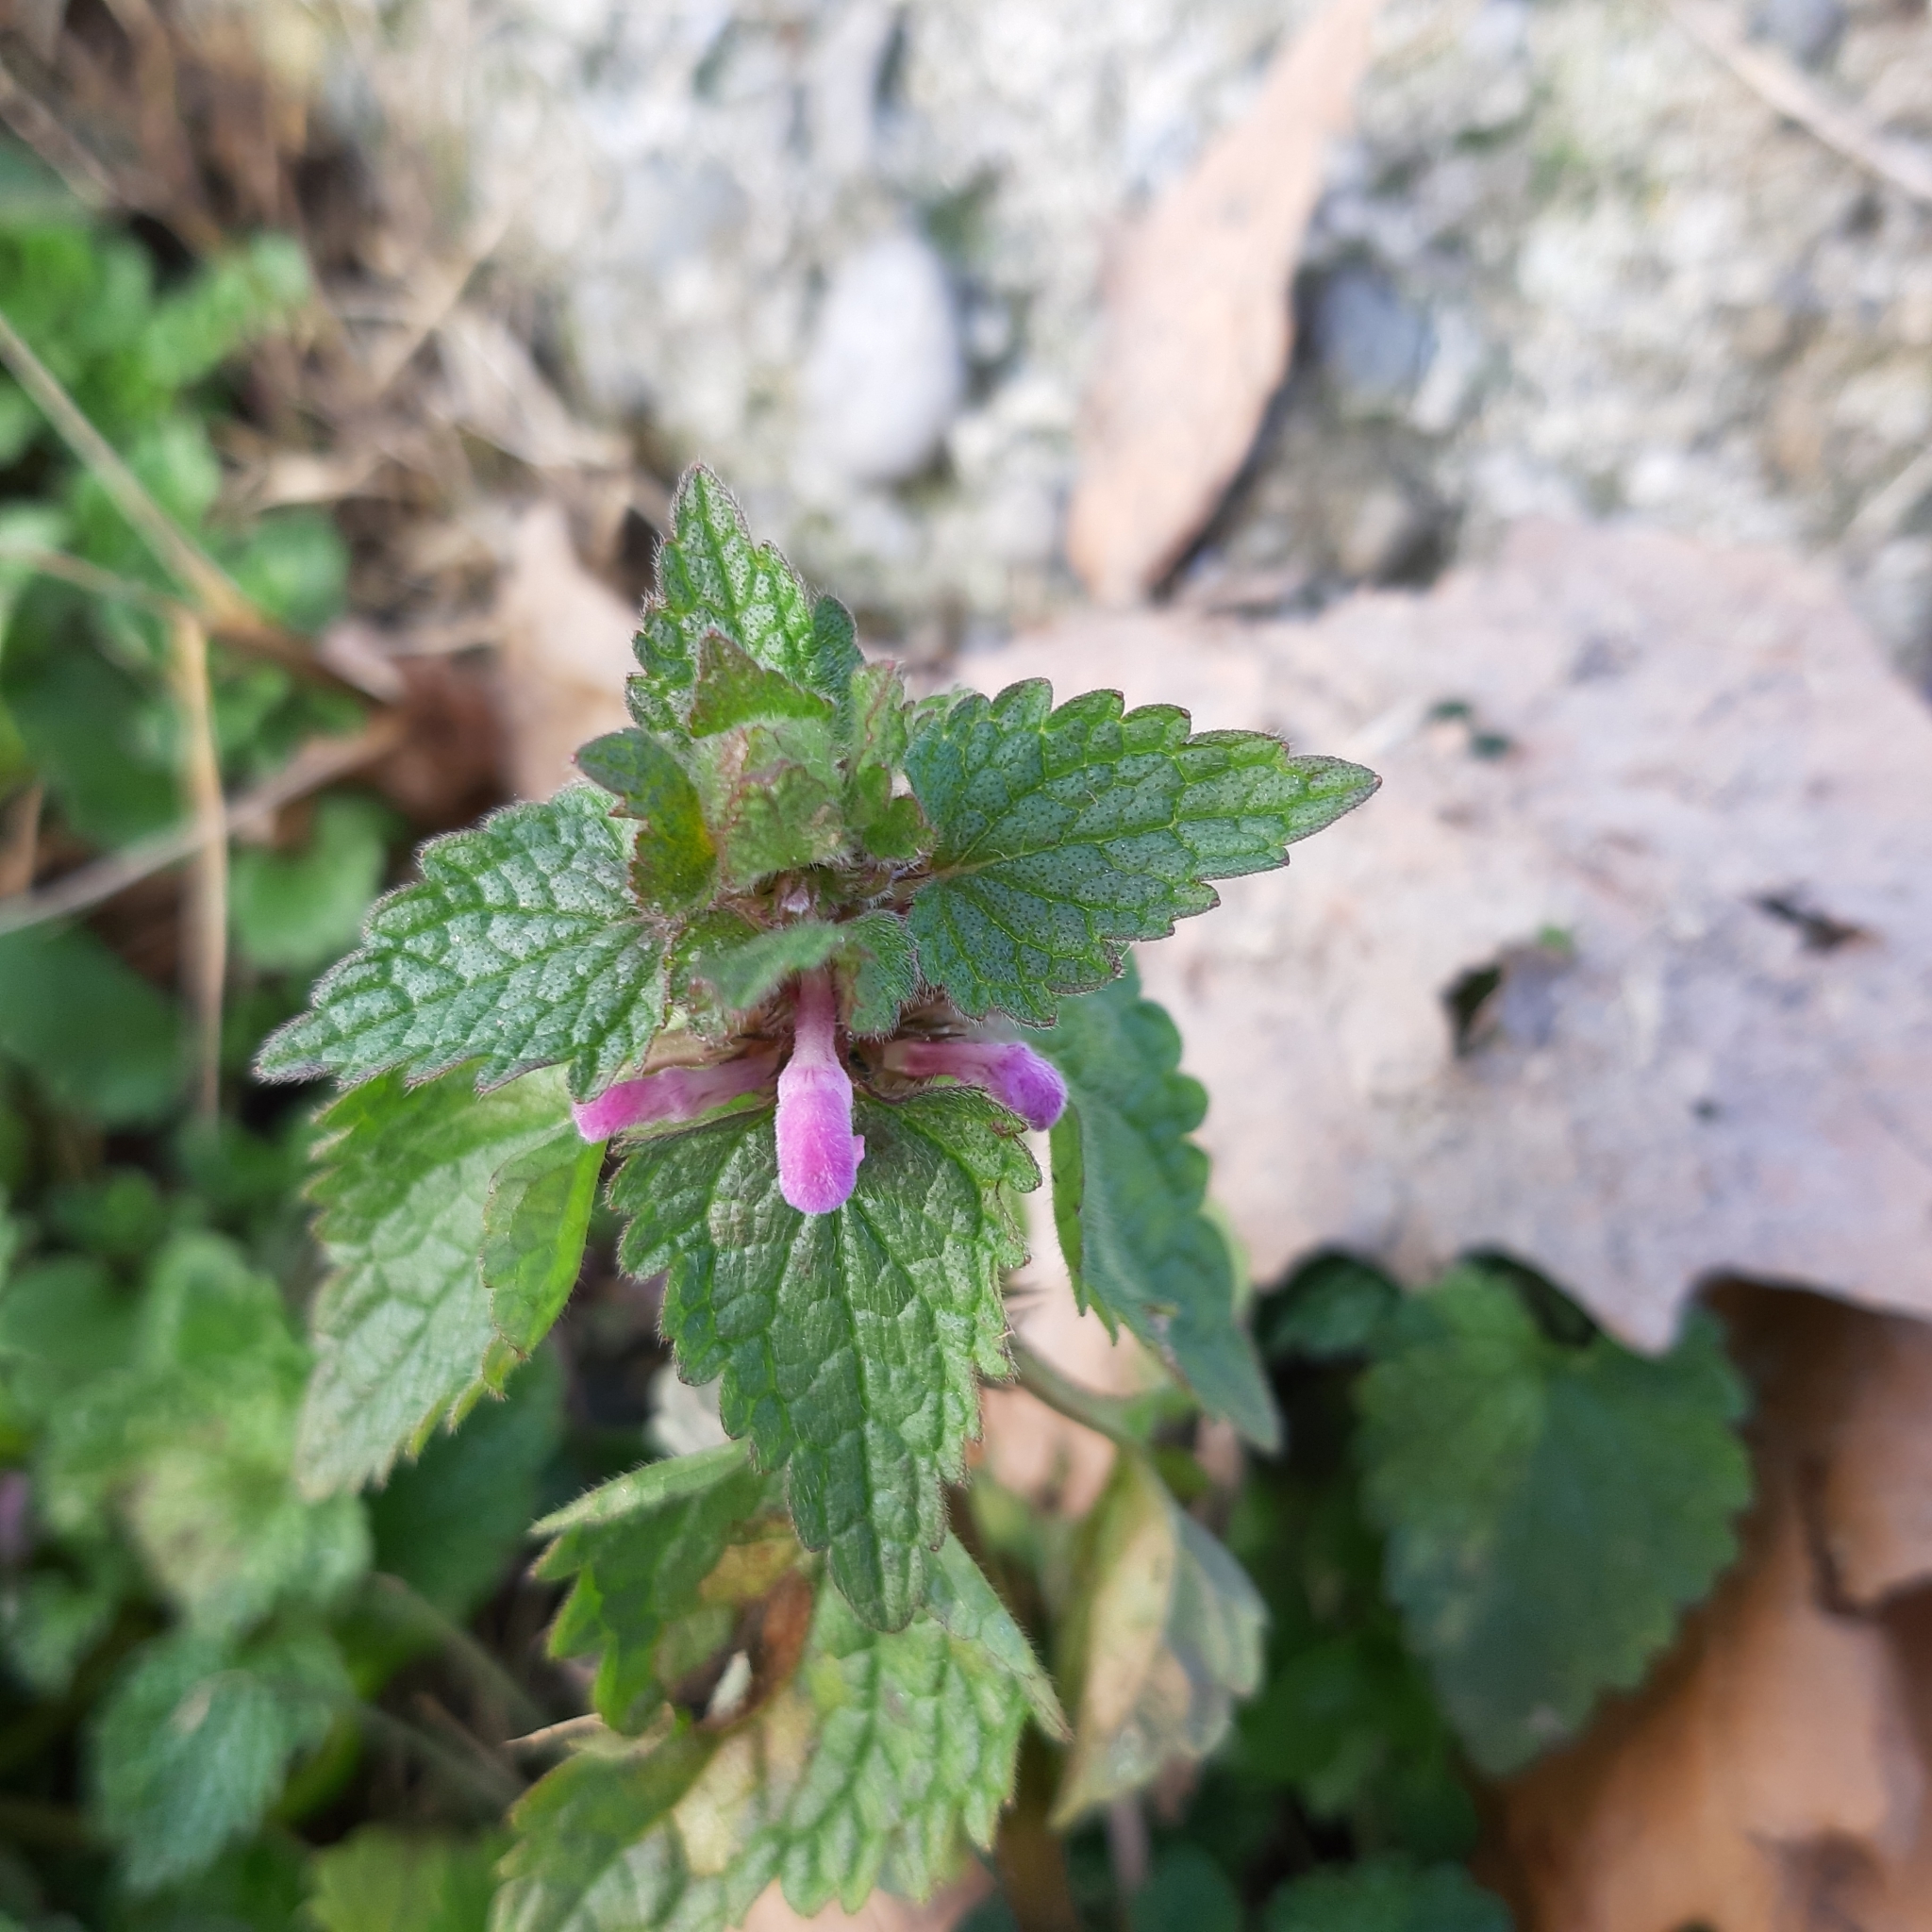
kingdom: Plantae
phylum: Tracheophyta
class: Magnoliopsida
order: Lamiales
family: Lamiaceae
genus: Lamium
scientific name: Lamium purpureum
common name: Red dead-nettle
